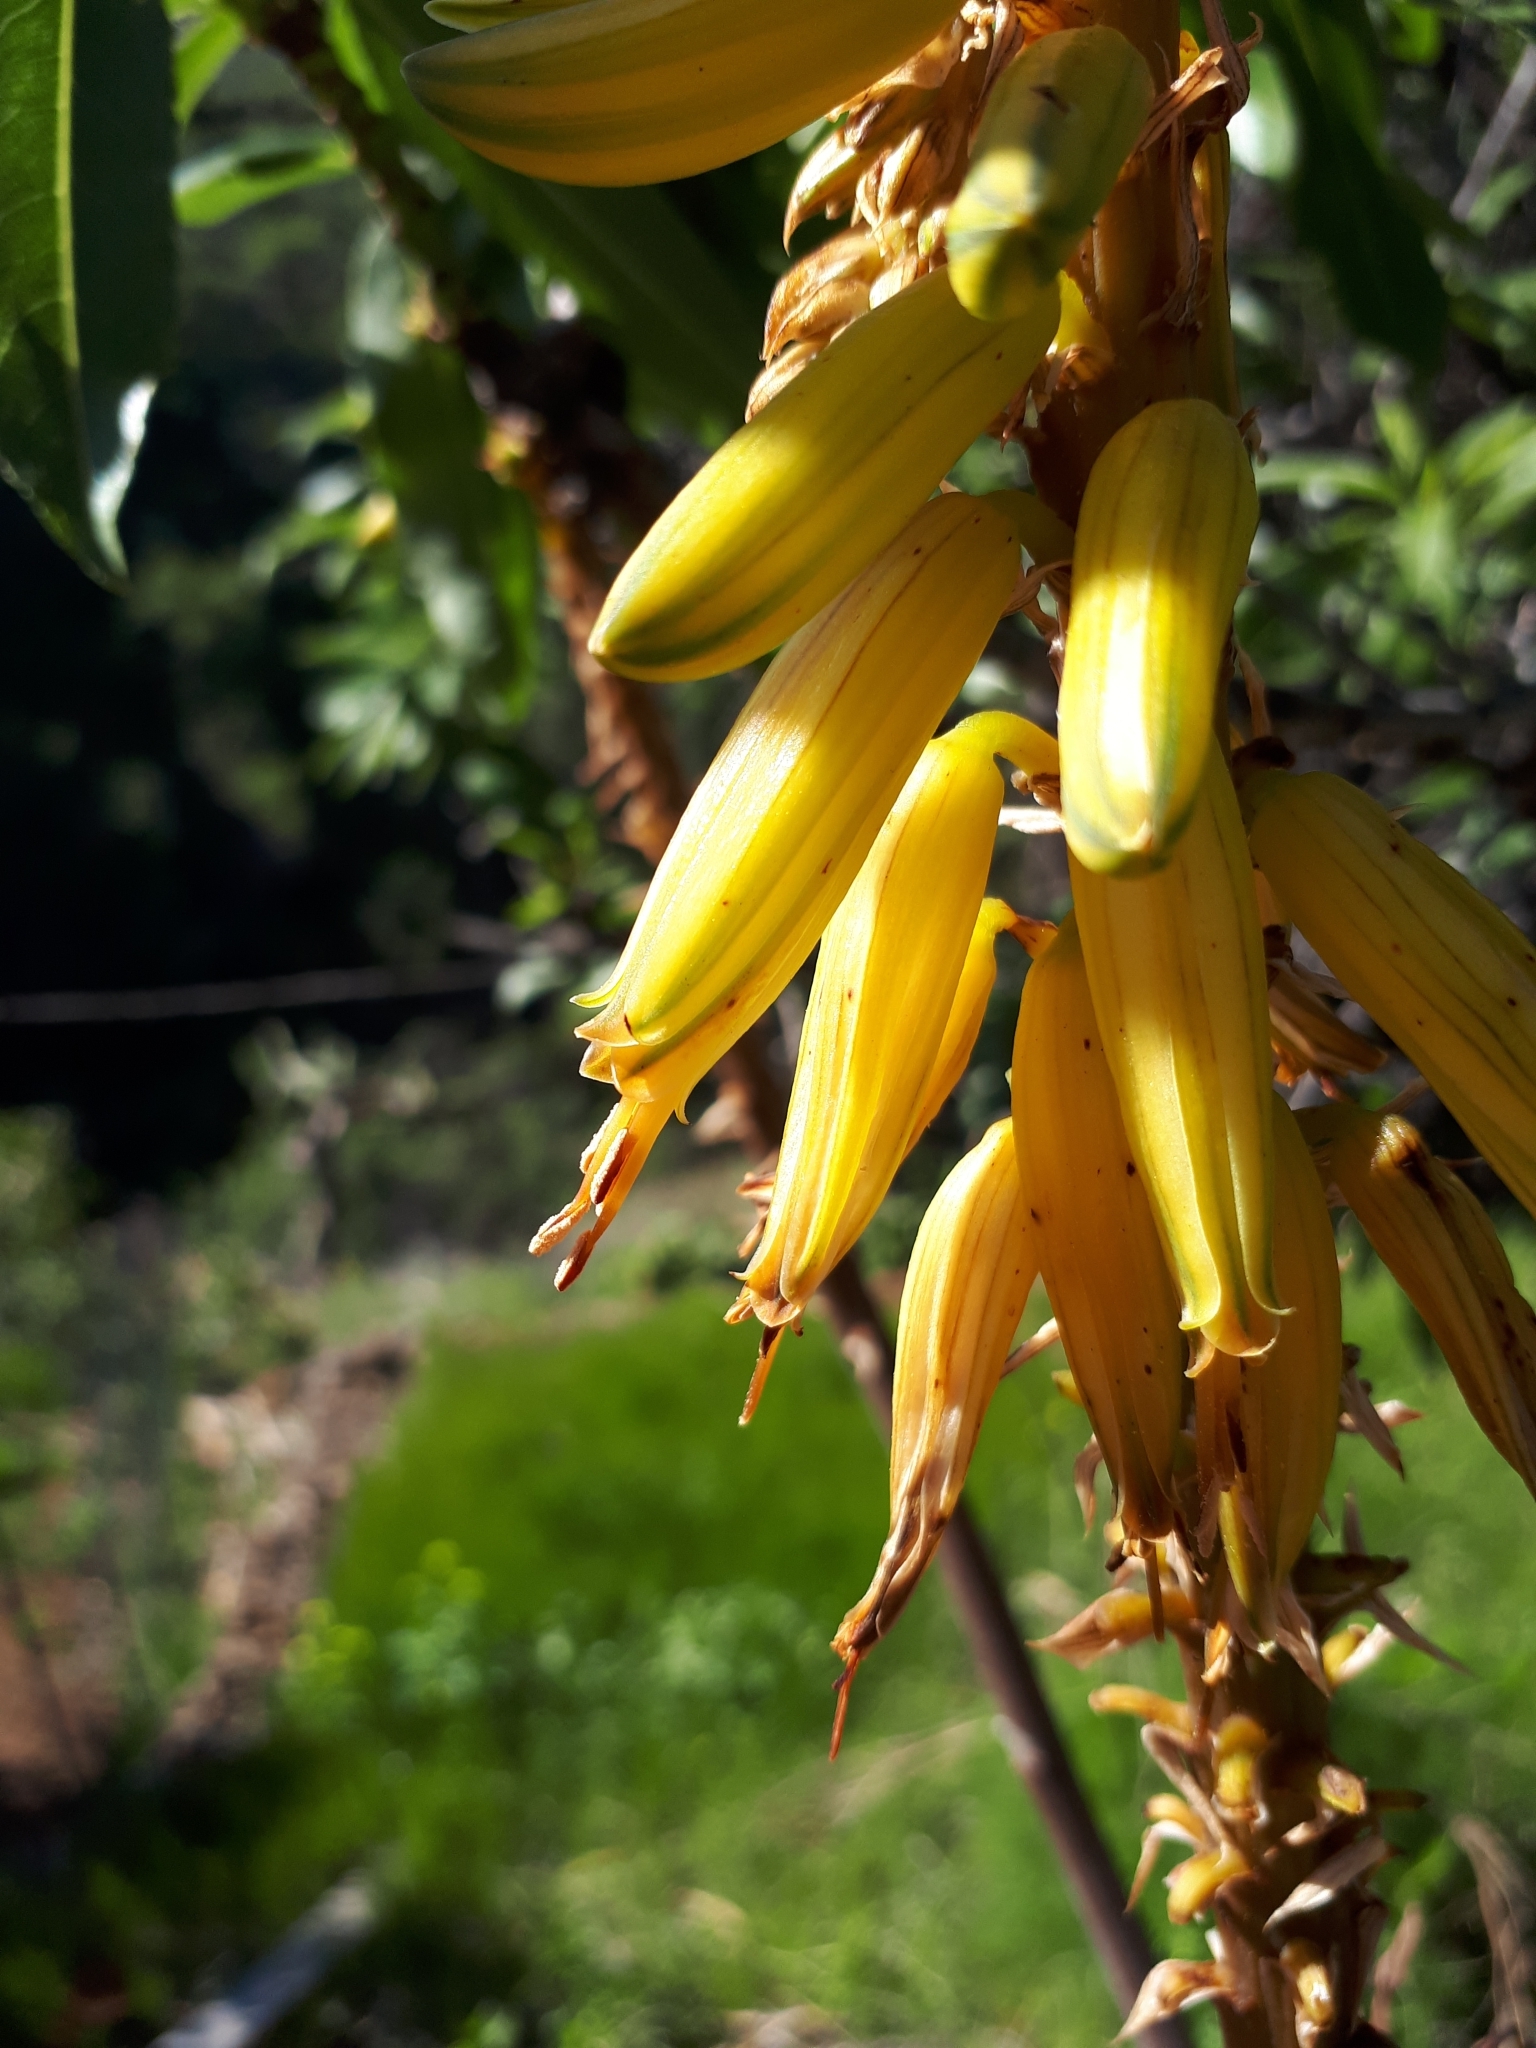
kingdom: Plantae
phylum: Tracheophyta
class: Liliopsida
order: Asparagales
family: Asphodelaceae
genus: Aloe
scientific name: Aloe vera
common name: Barbados aloe
